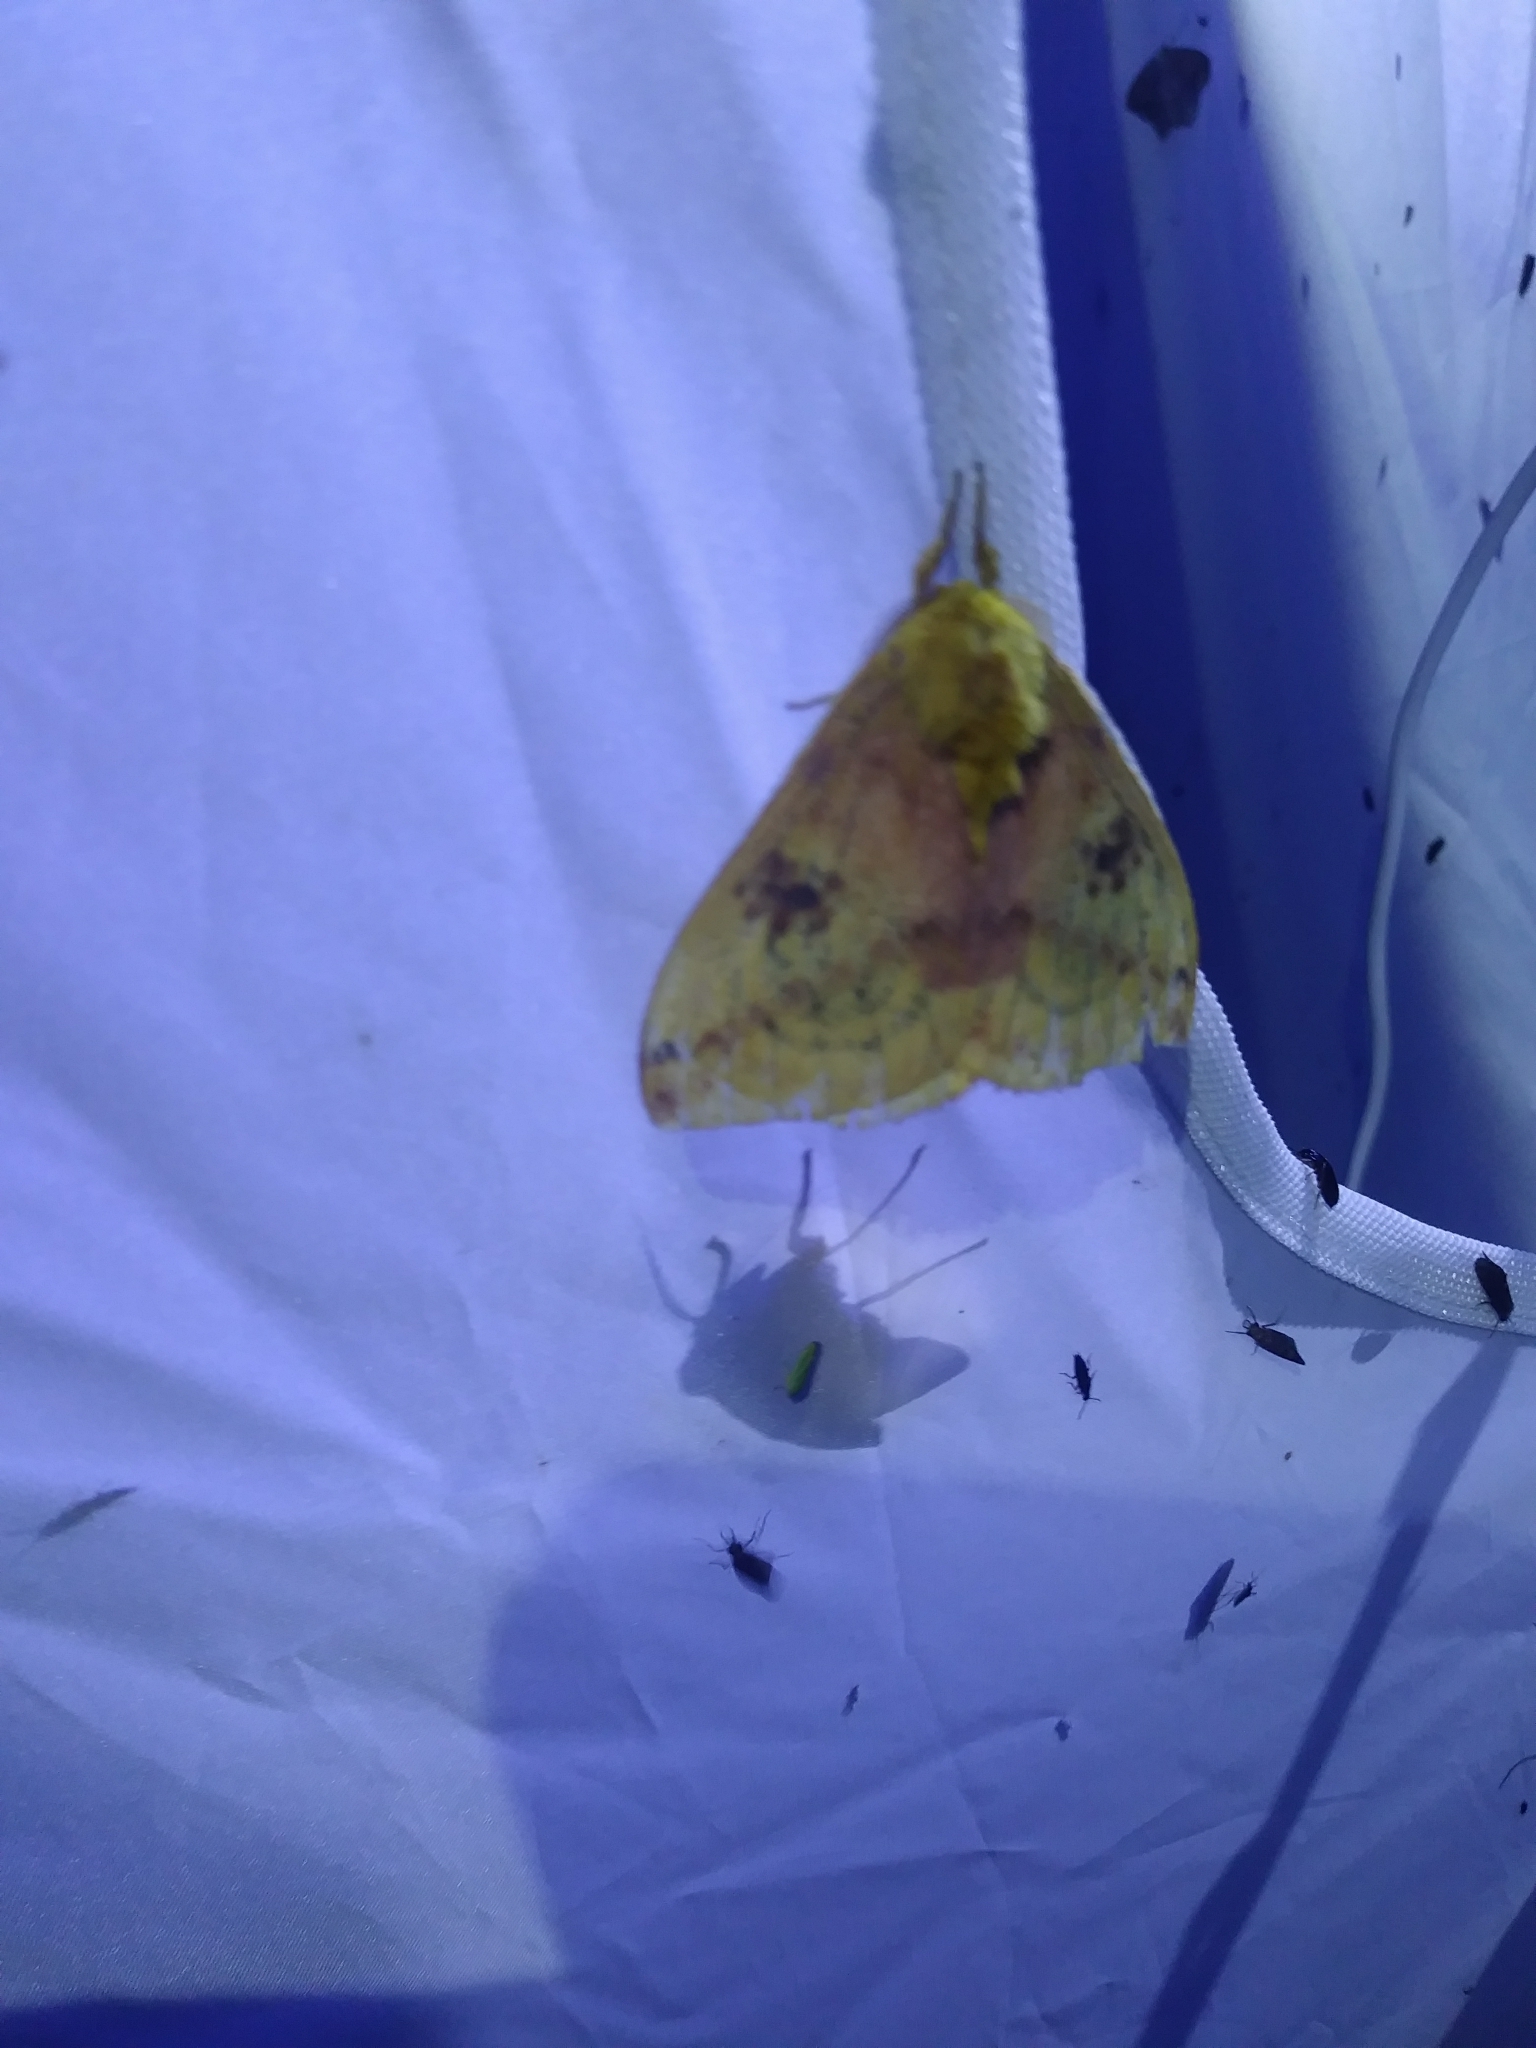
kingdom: Animalia
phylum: Arthropoda
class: Insecta
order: Lepidoptera
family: Saturniidae
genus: Automeris
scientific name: Automeris io
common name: Io moth
